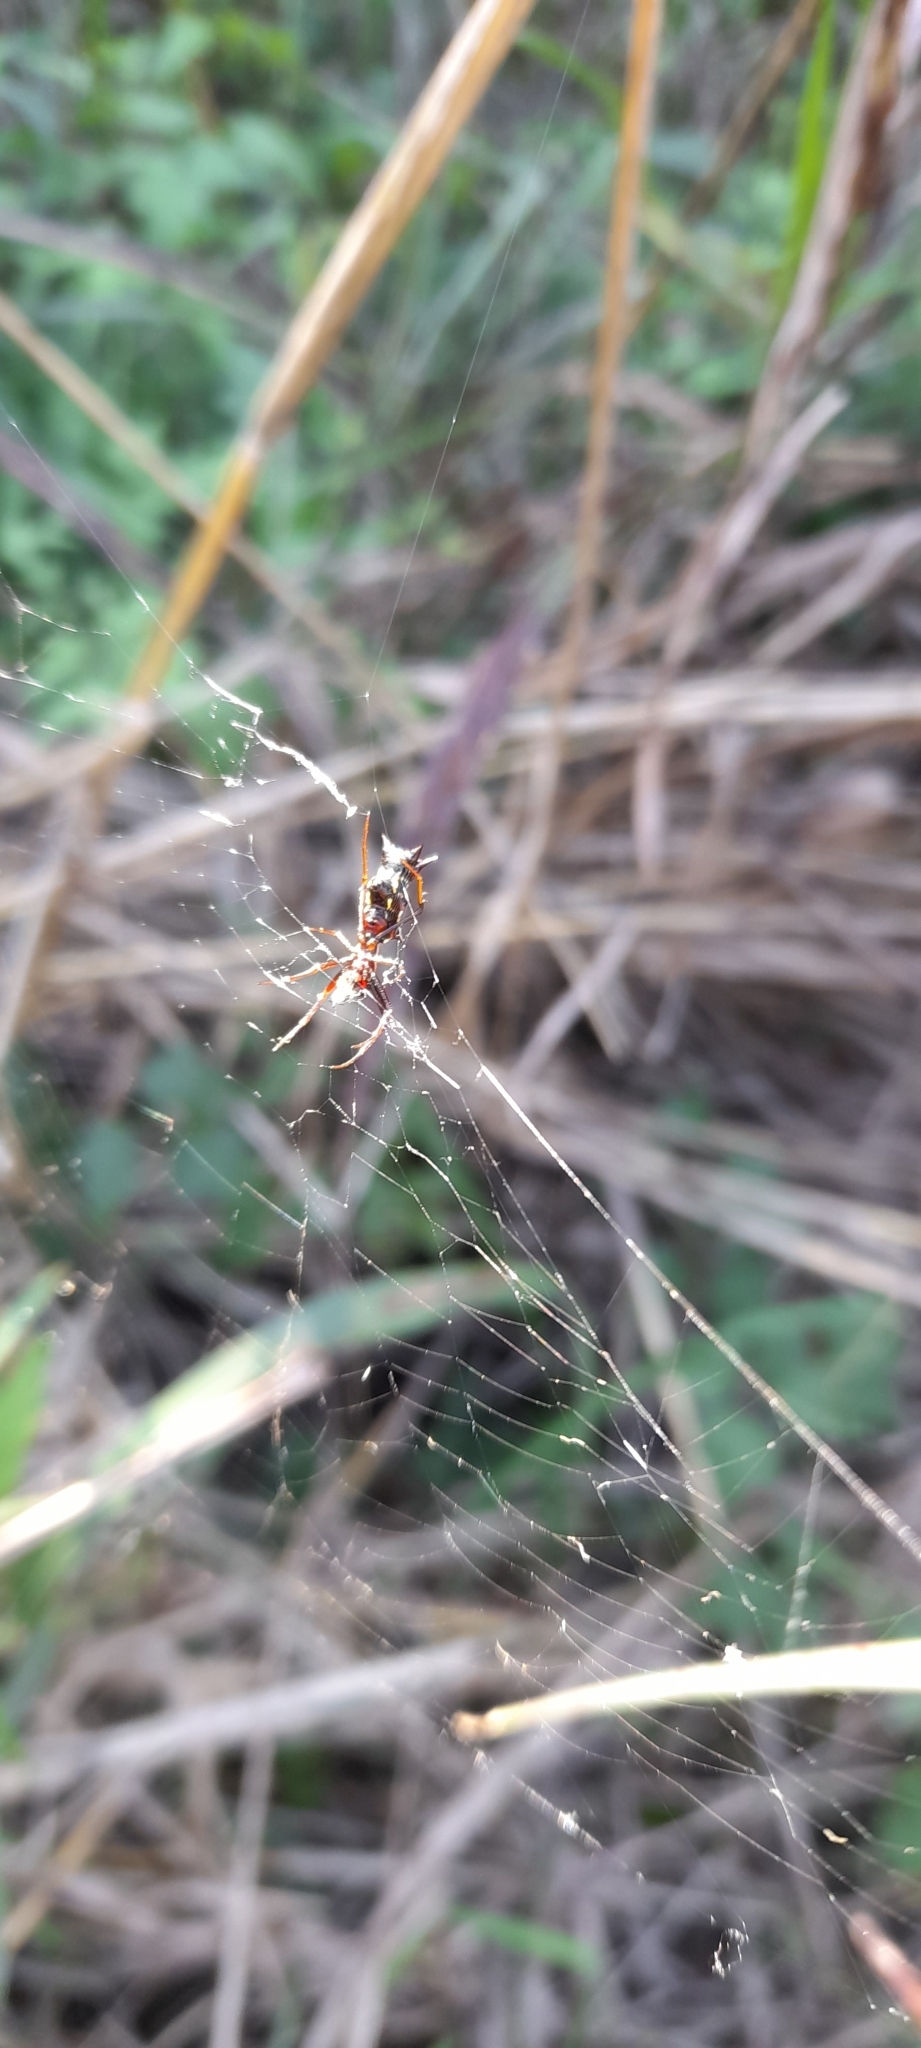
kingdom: Animalia
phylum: Arthropoda
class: Arachnida
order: Araneae
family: Araneidae
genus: Micrathena
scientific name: Micrathena swainsoni
